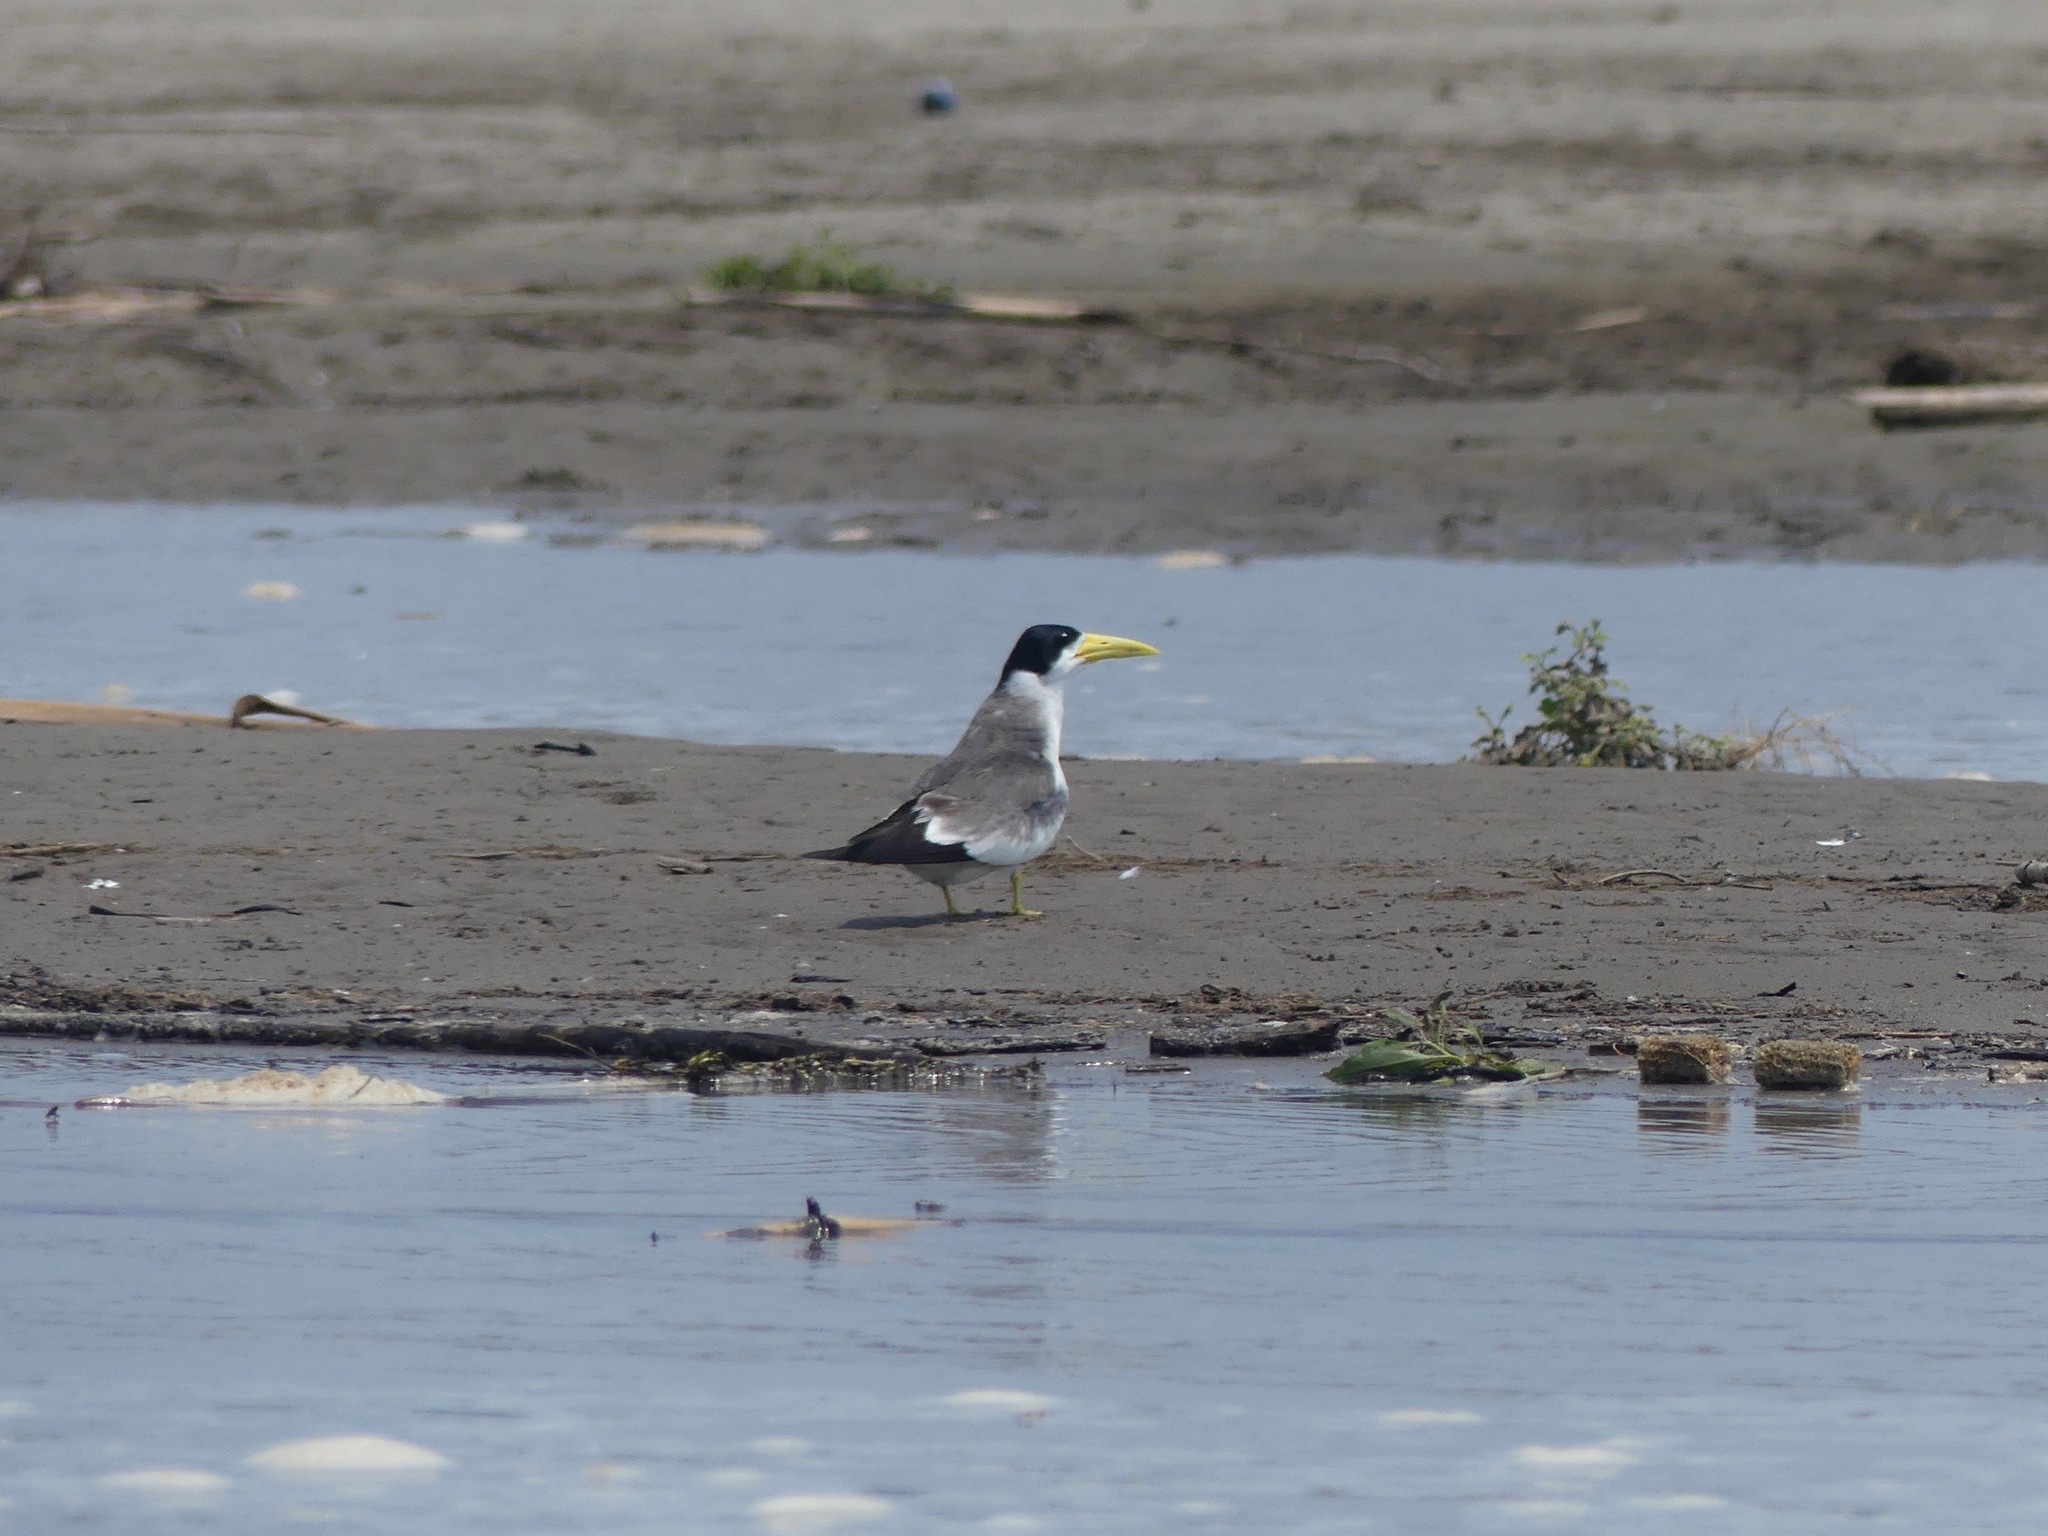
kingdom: Animalia
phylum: Chordata
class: Aves
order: Charadriiformes
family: Laridae
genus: Phaetusa
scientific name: Phaetusa simplex
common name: Large-billed tern
